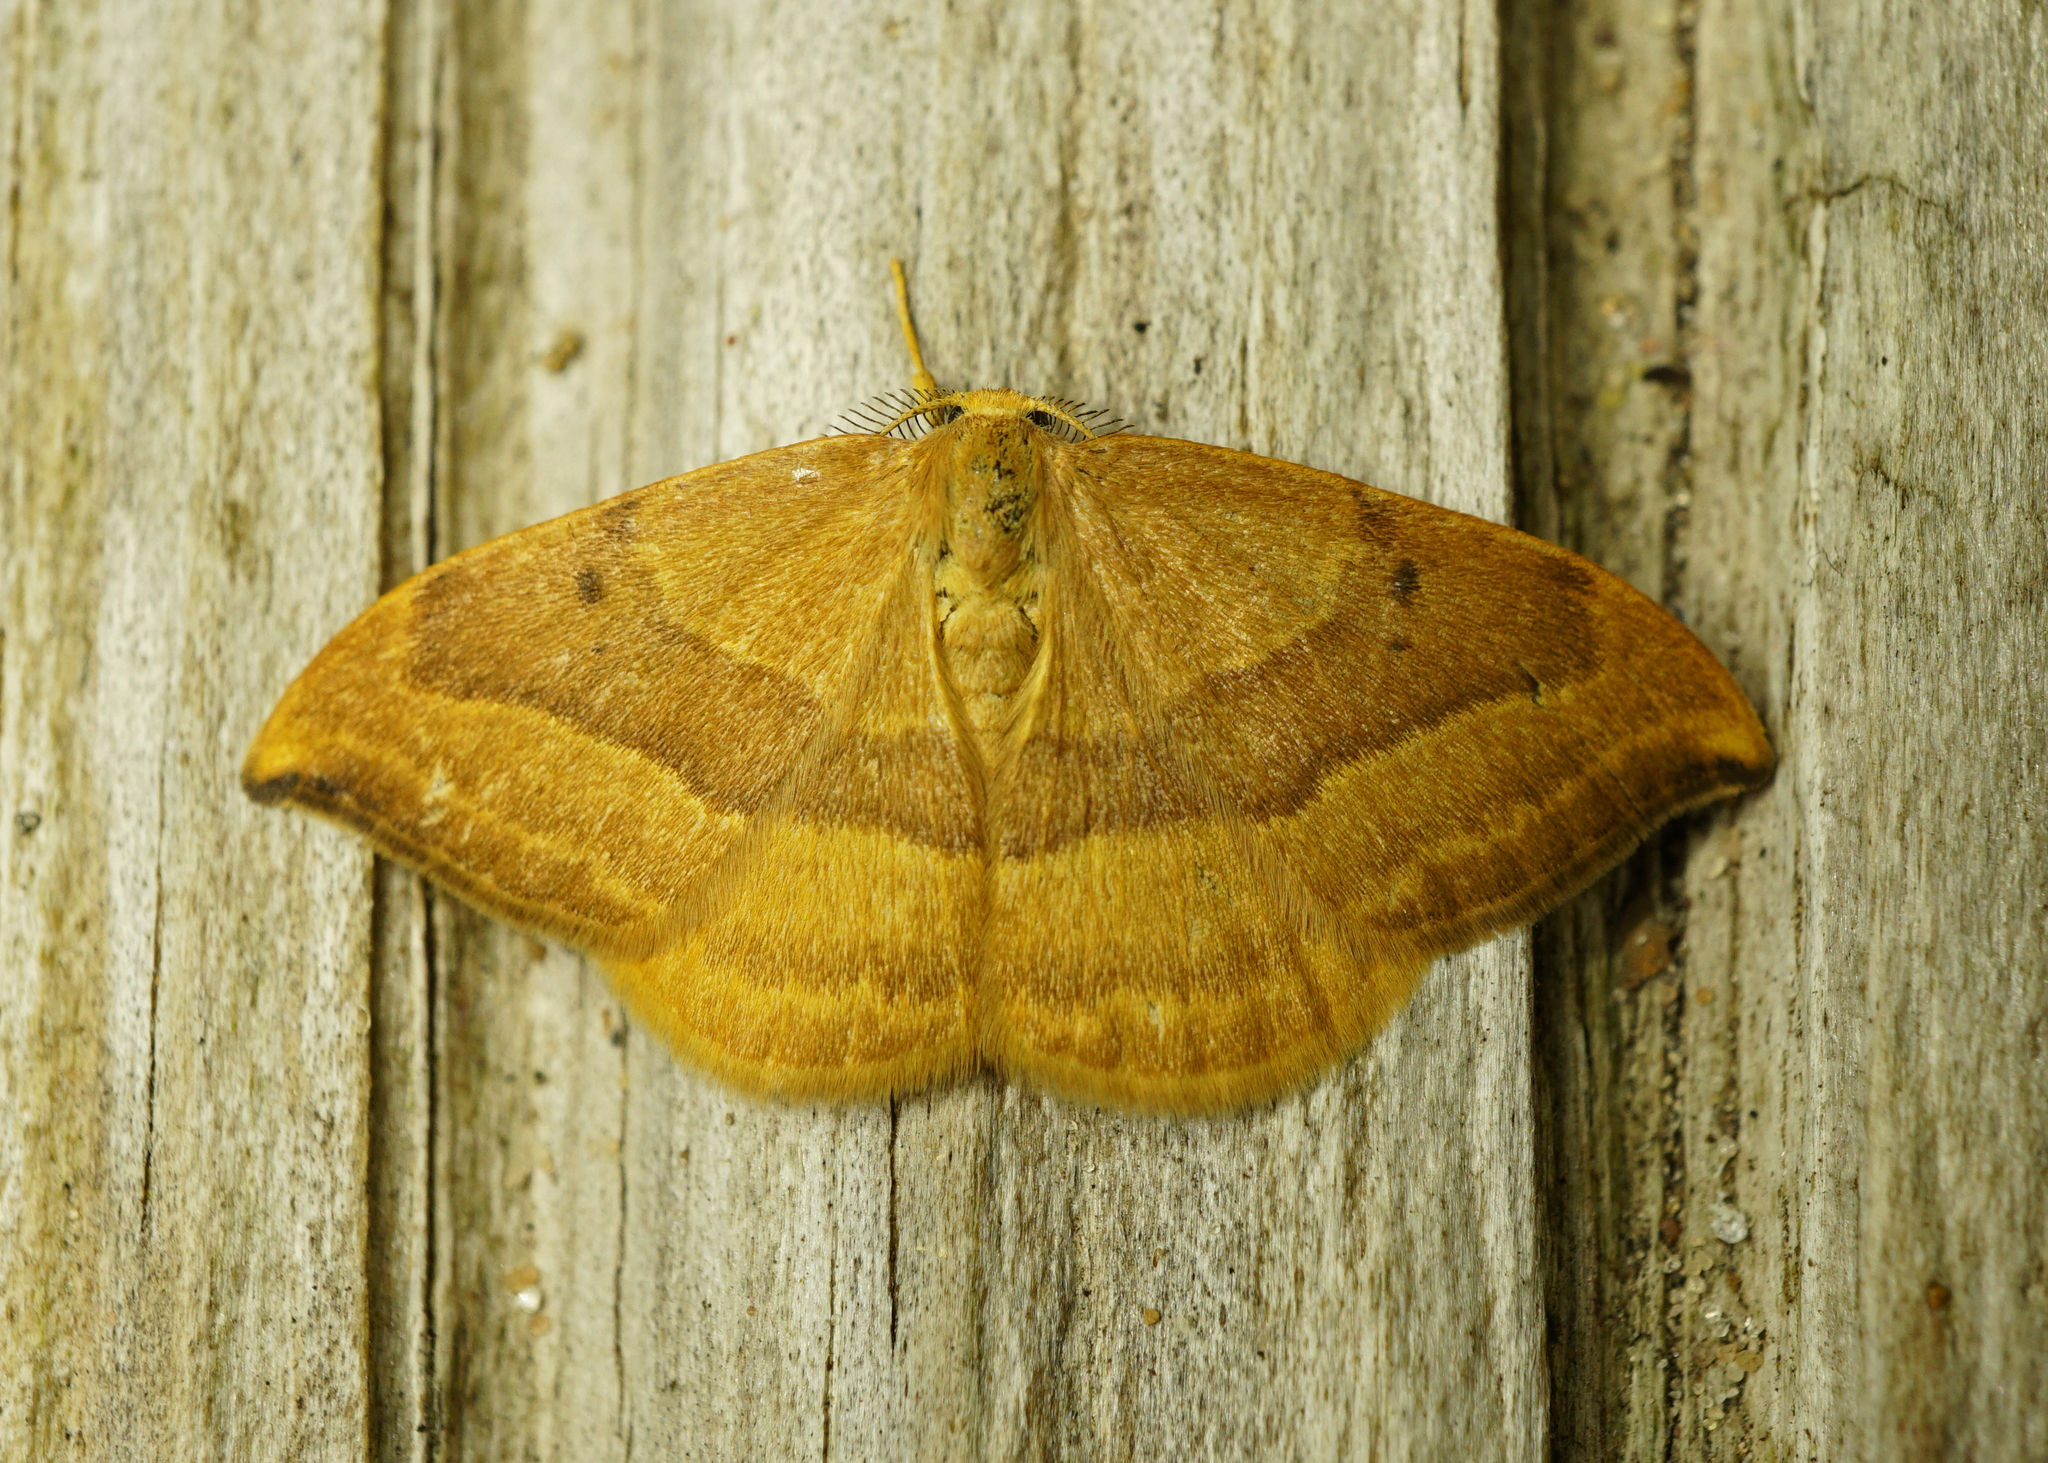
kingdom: Animalia
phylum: Arthropoda
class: Insecta
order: Lepidoptera
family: Drepanidae
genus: Watsonalla
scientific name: Watsonalla cultraria
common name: Barred hook-tip
